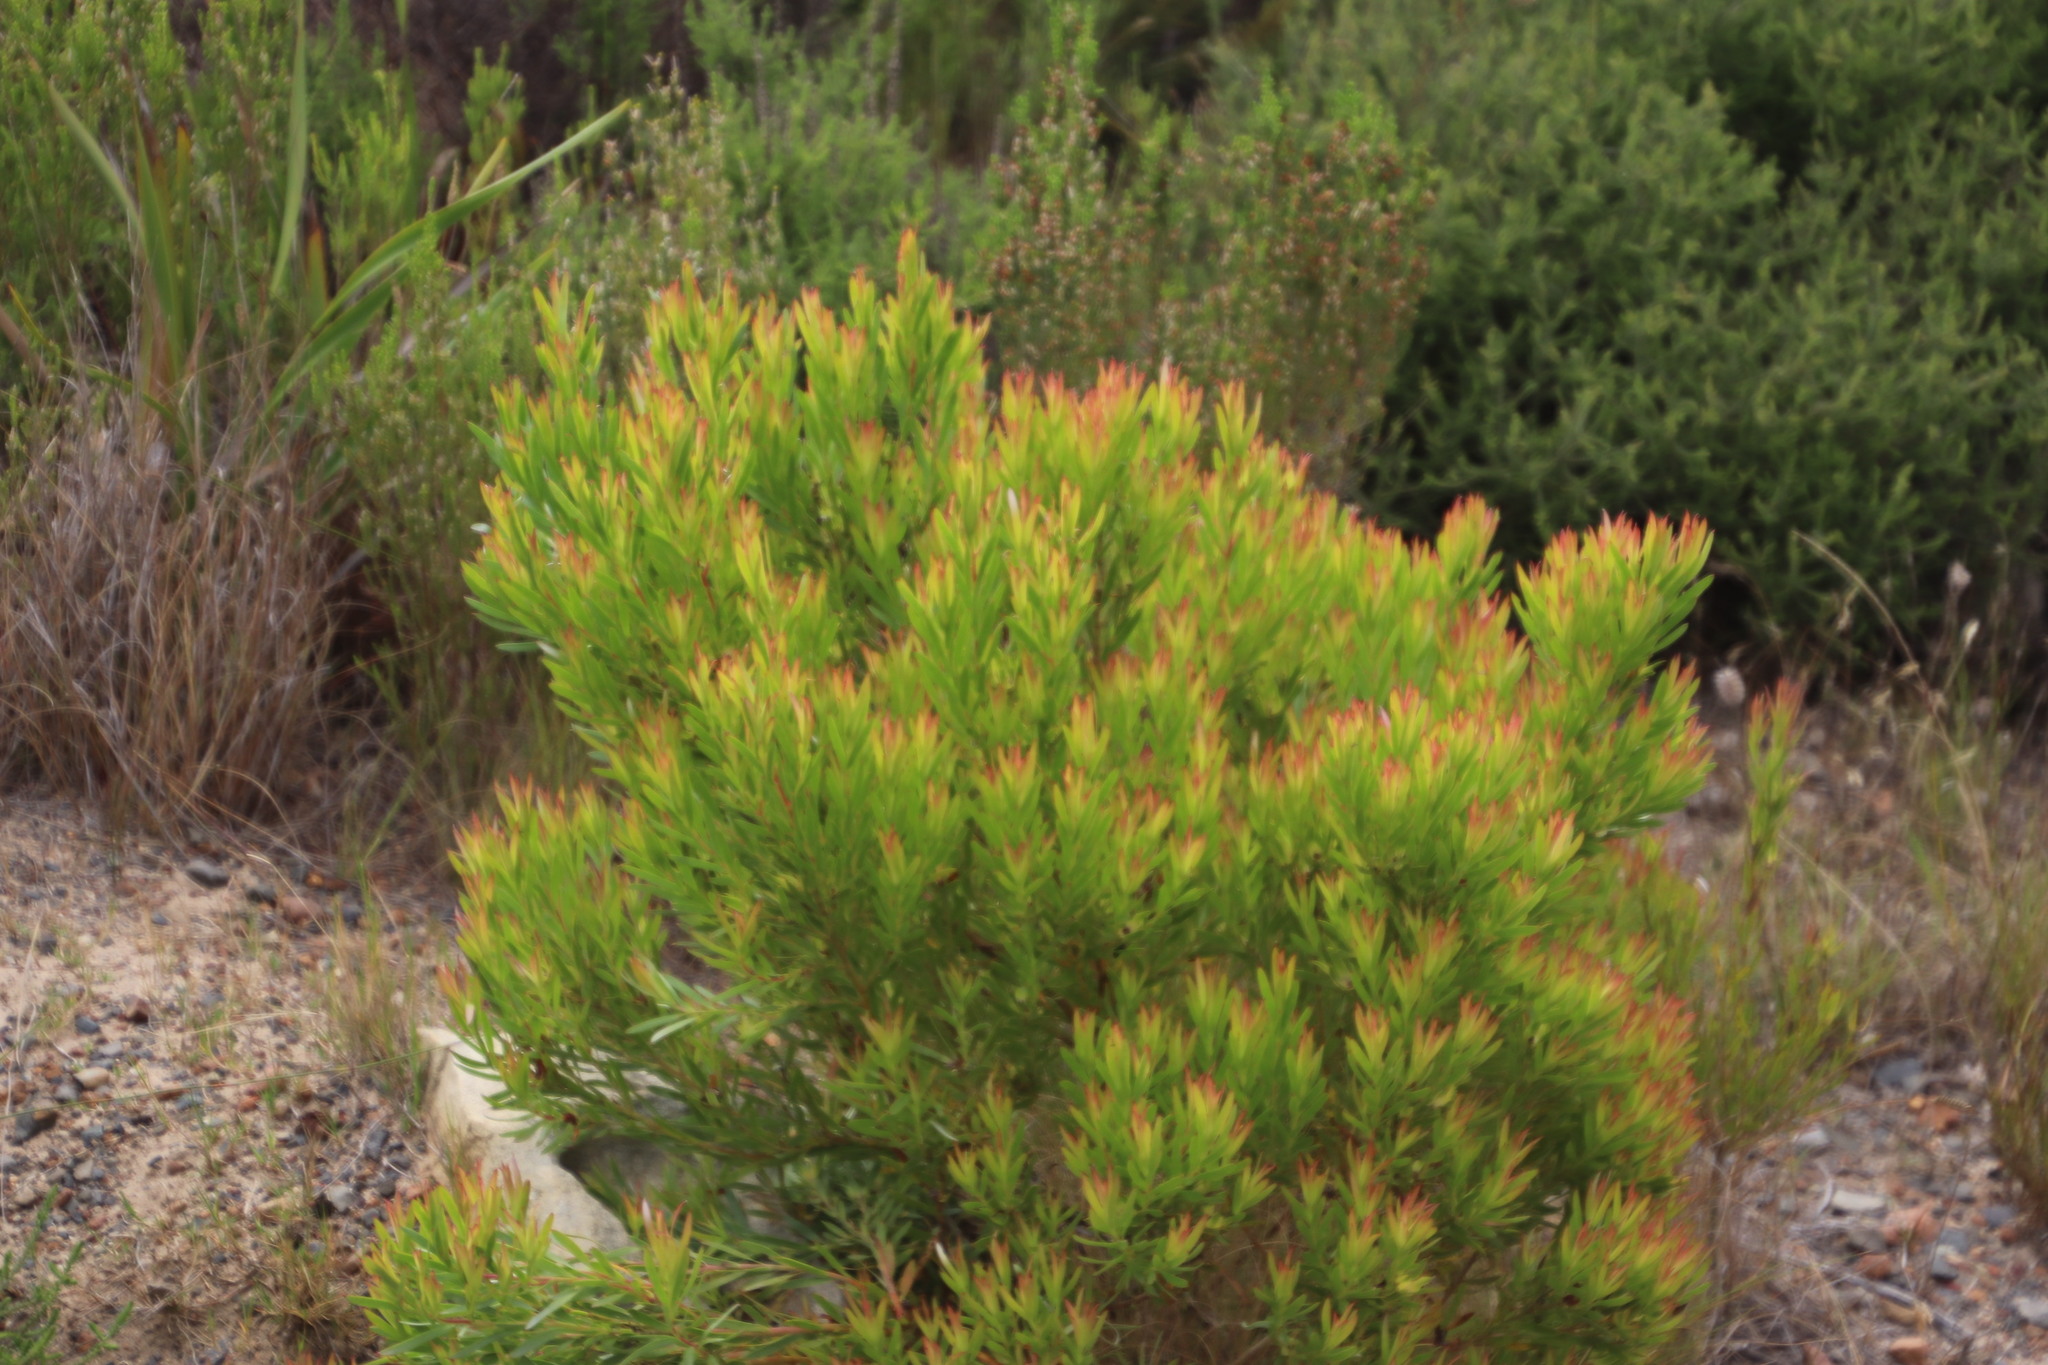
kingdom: Plantae
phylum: Tracheophyta
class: Magnoliopsida
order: Proteales
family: Proteaceae
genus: Leucadendron
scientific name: Leucadendron xanthoconus
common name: Sickle-leaf conebush
